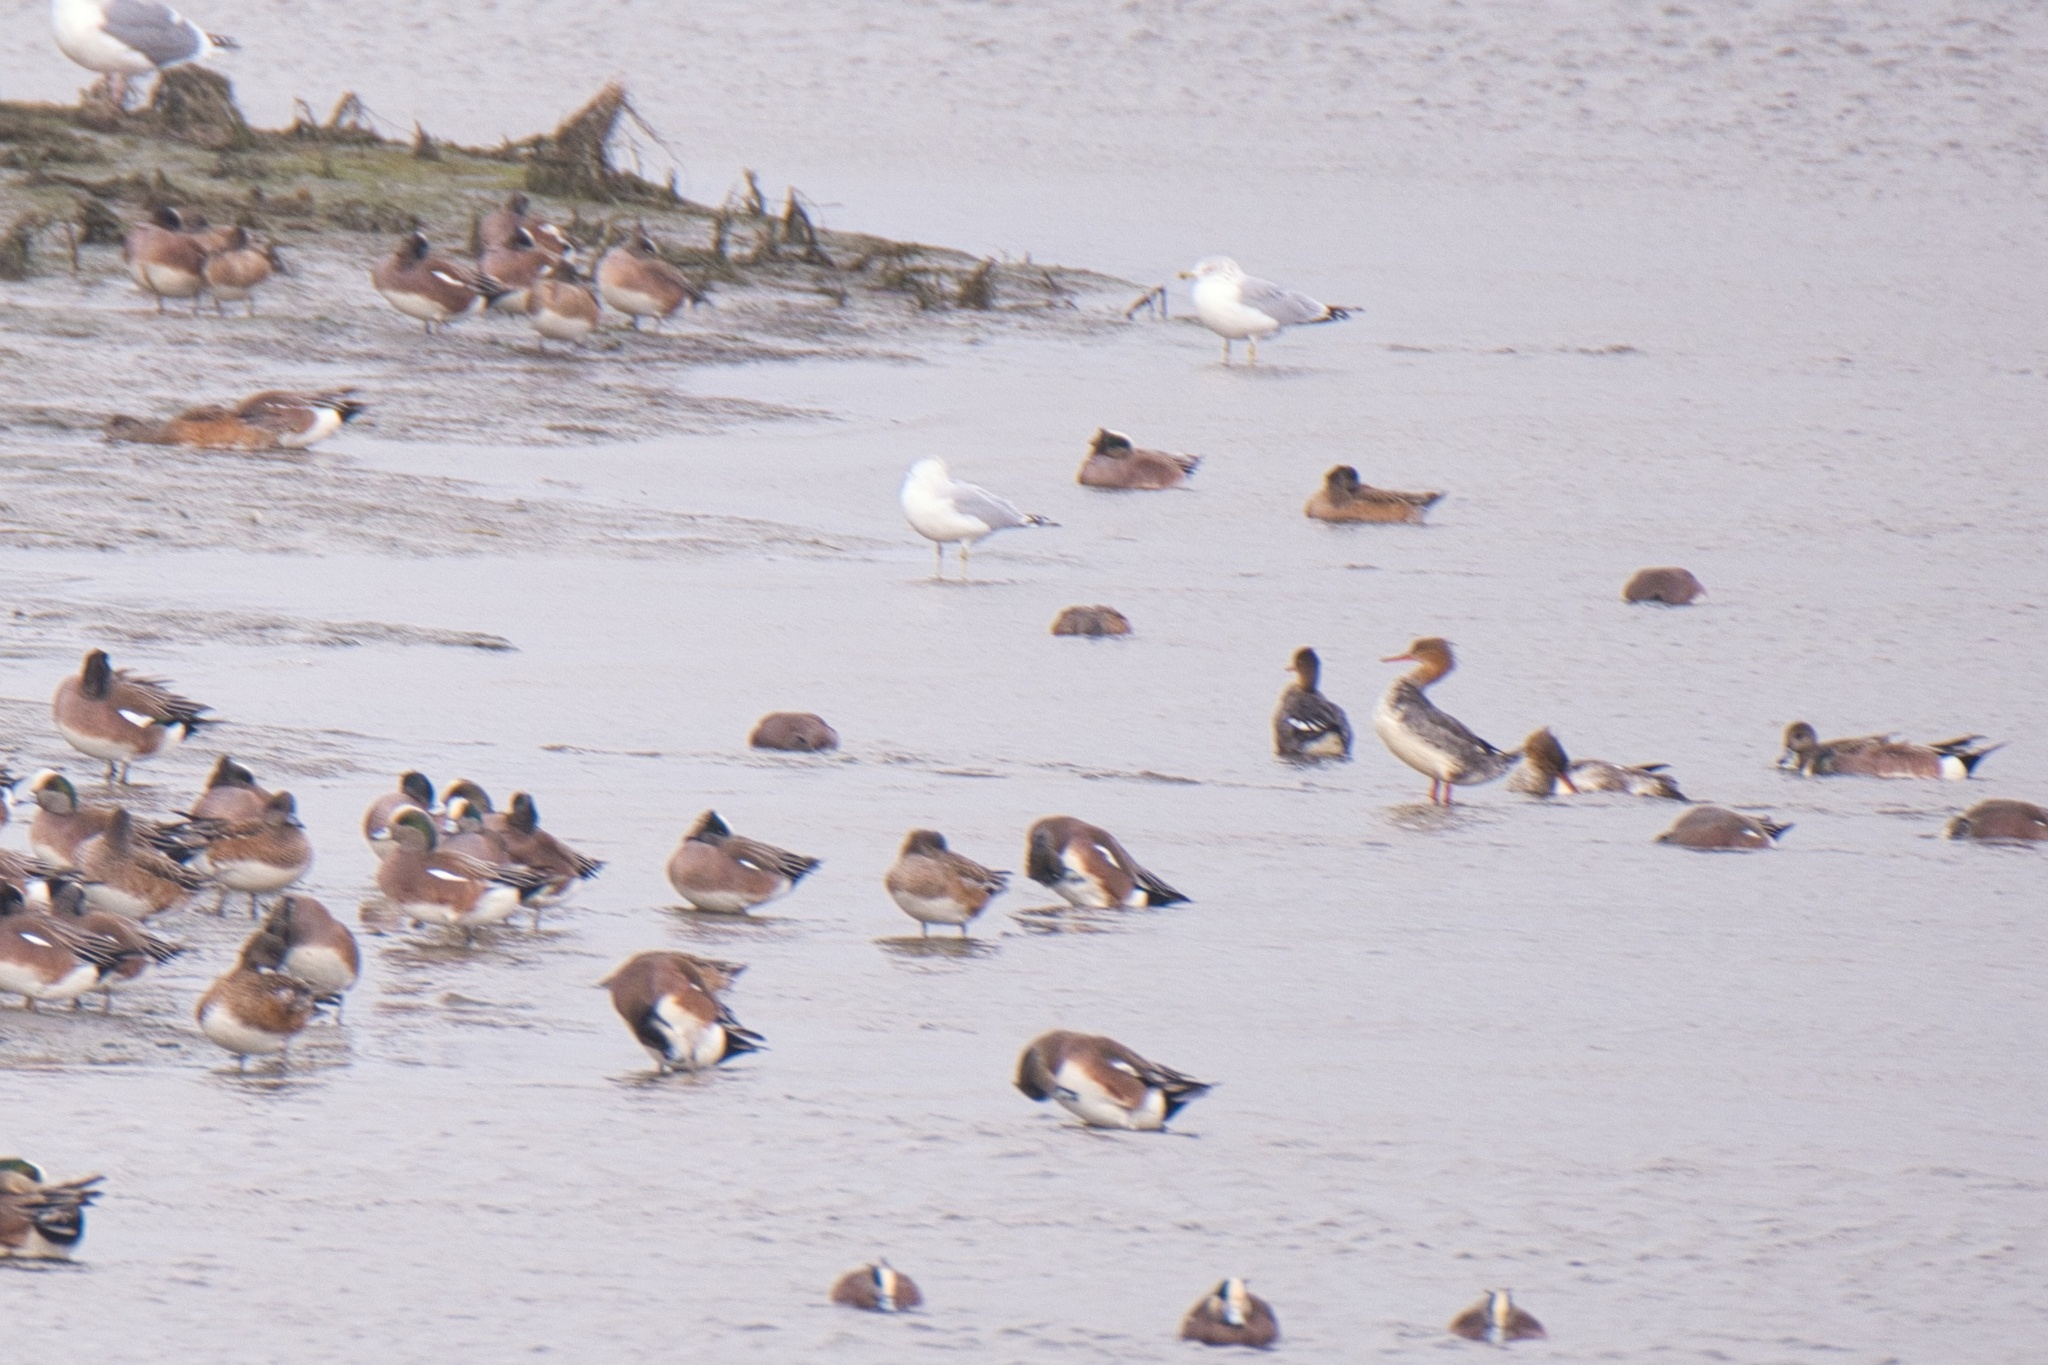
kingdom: Animalia
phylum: Chordata
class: Aves
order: Anseriformes
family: Anatidae
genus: Mergus
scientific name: Mergus serrator
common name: Red-breasted merganser
